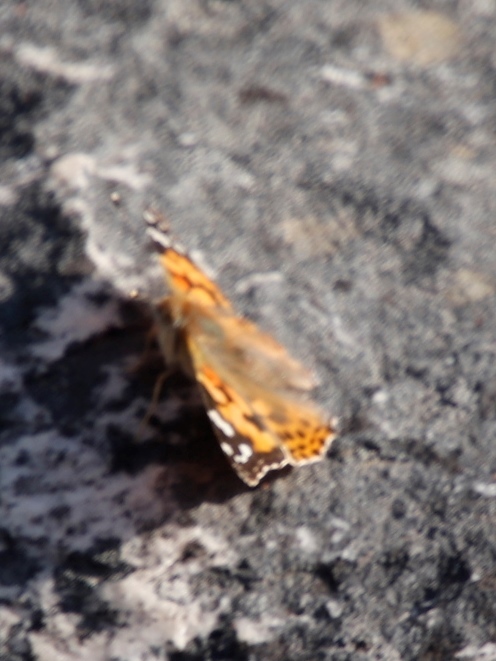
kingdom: Animalia
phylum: Arthropoda
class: Insecta
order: Lepidoptera
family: Nymphalidae
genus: Vanessa
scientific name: Vanessa cardui
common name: Painted lady
